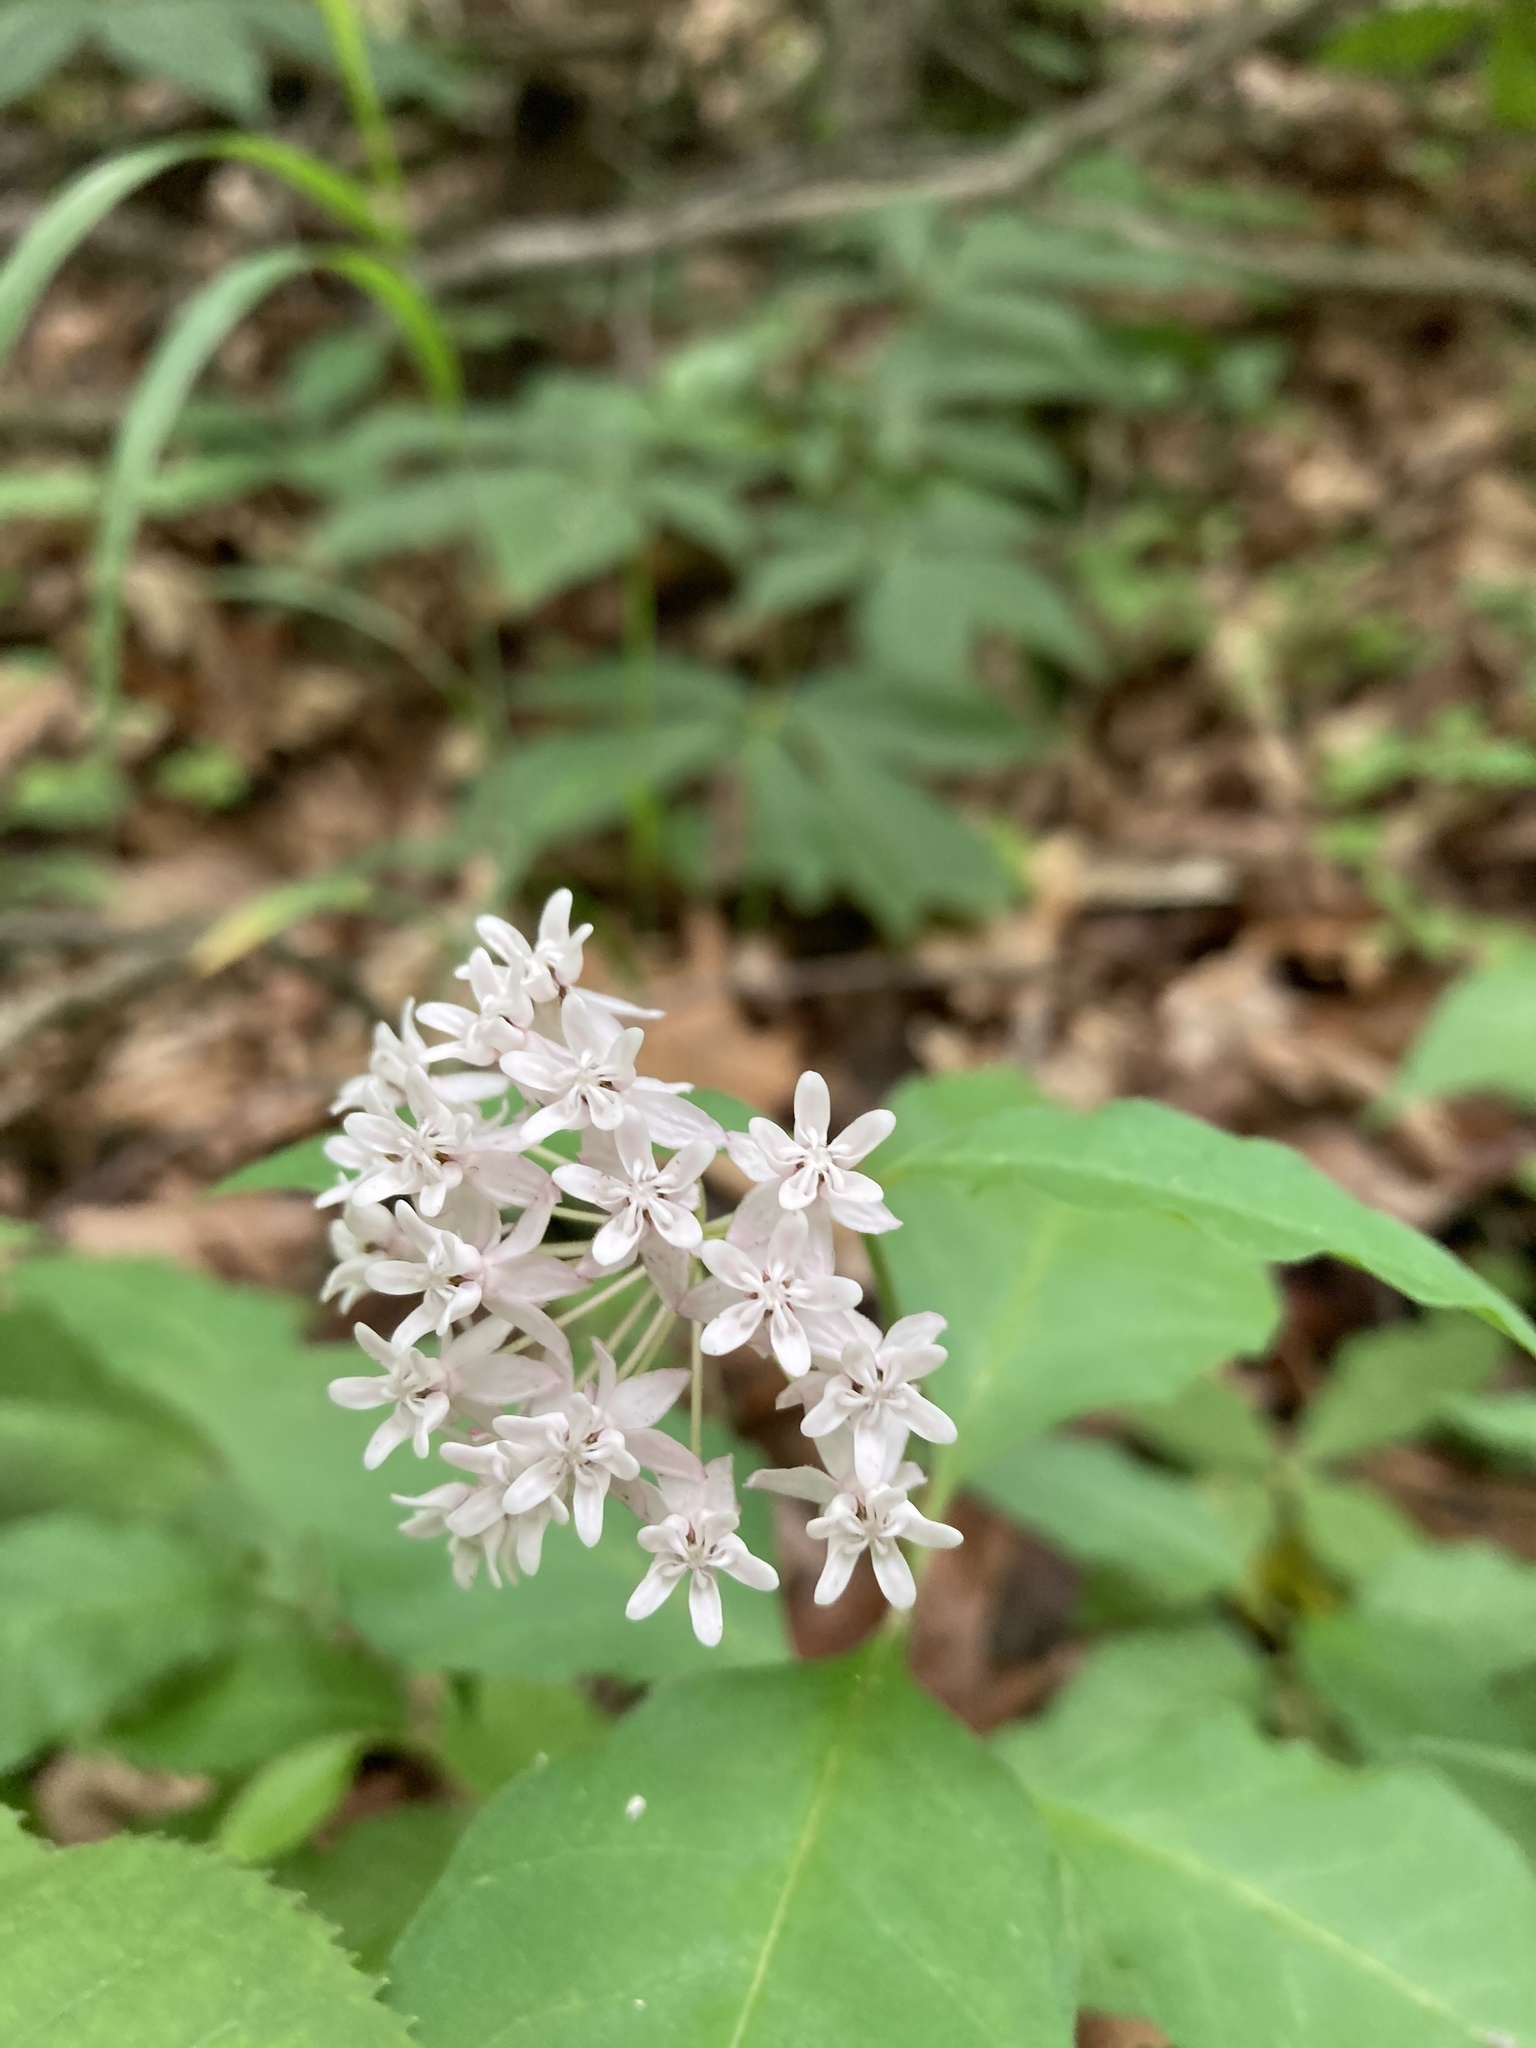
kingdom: Plantae
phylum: Tracheophyta
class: Magnoliopsida
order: Gentianales
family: Apocynaceae
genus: Asclepias
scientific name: Asclepias quadrifolia
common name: Whorled milkweed
